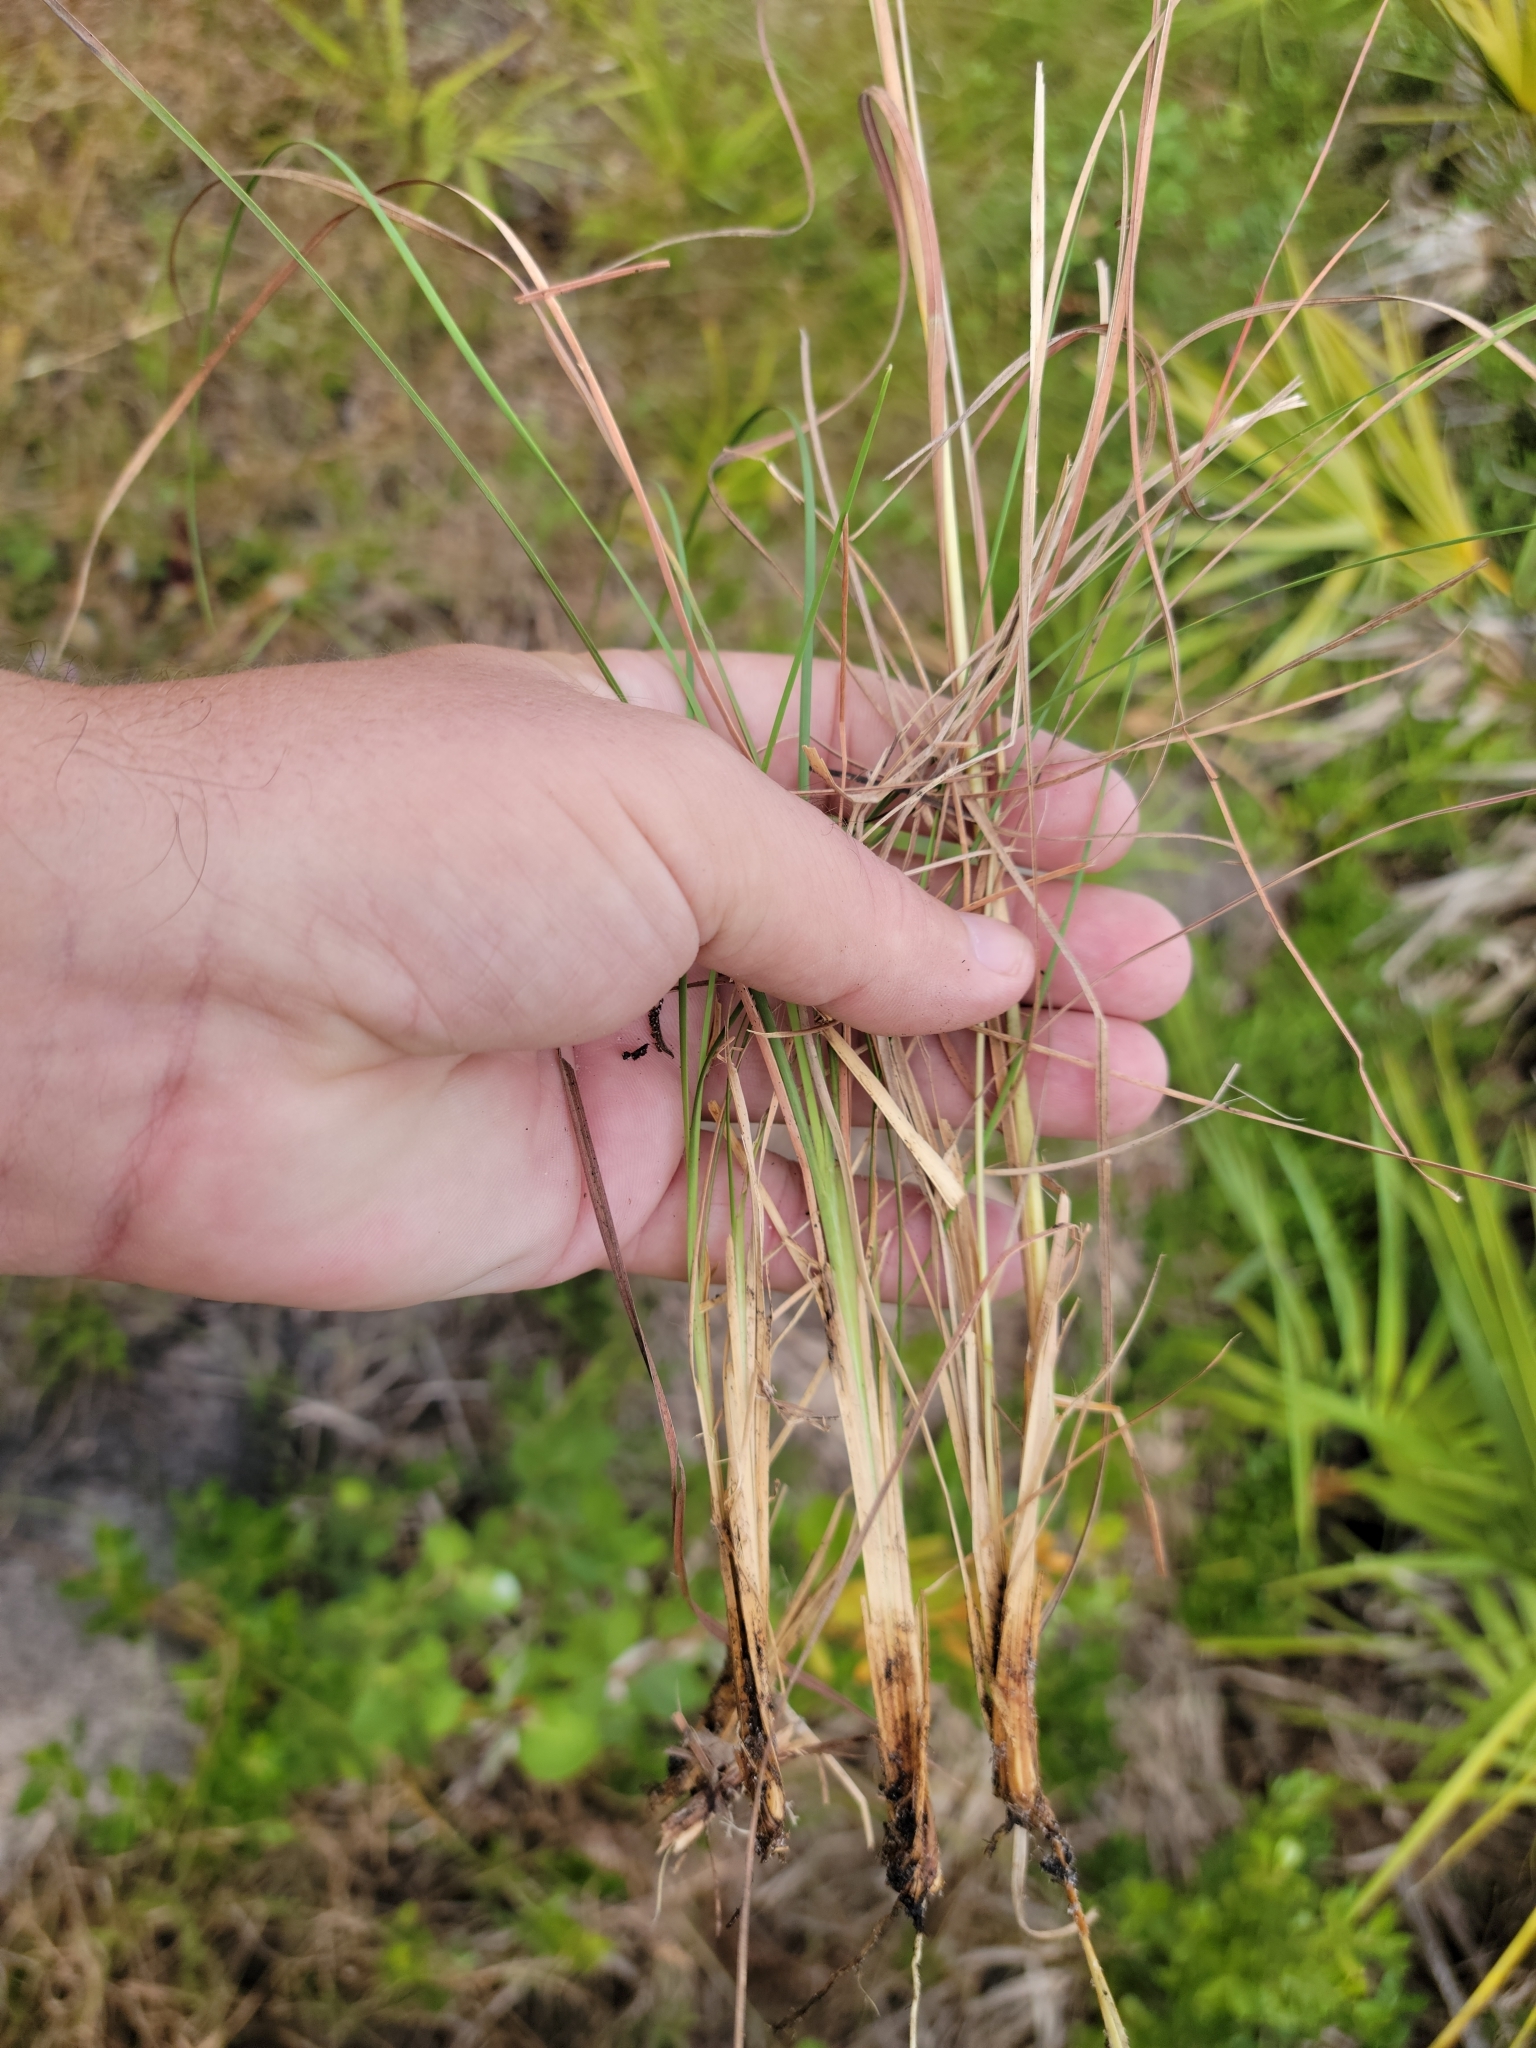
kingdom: Plantae
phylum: Tracheophyta
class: Liliopsida
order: Poales
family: Poaceae
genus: Andropogon
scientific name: Andropogon gyrans
